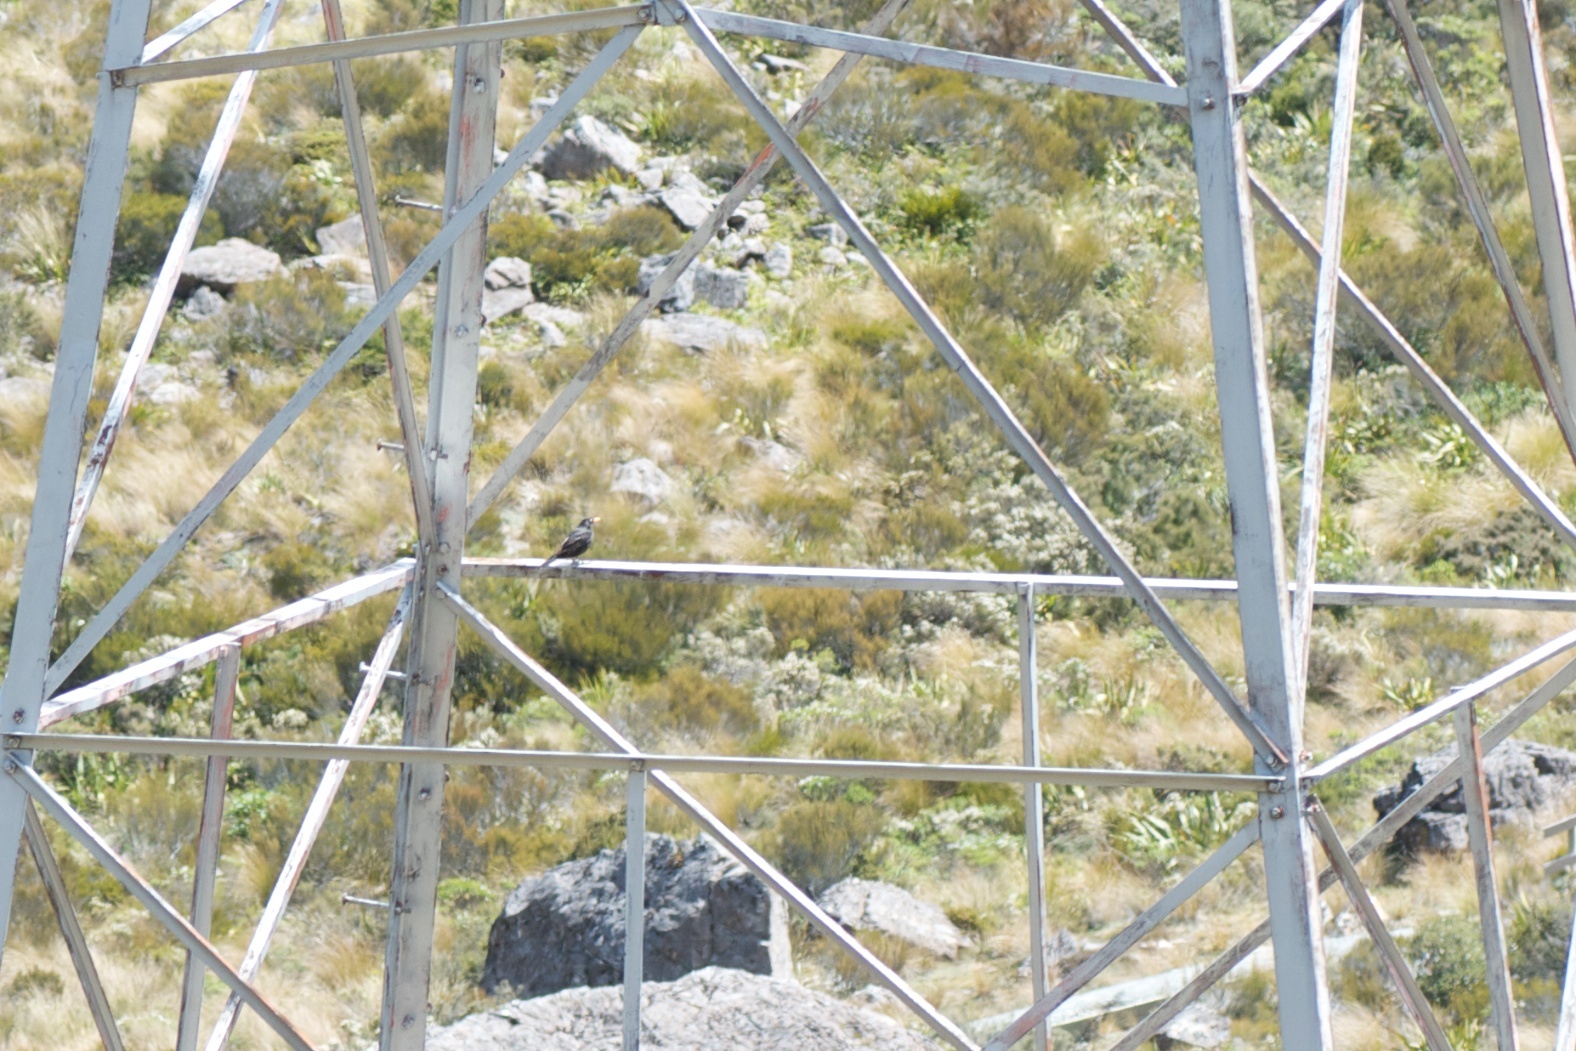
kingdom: Animalia
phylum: Chordata
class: Aves
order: Passeriformes
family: Turdidae
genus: Turdus
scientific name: Turdus merula
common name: Common blackbird
